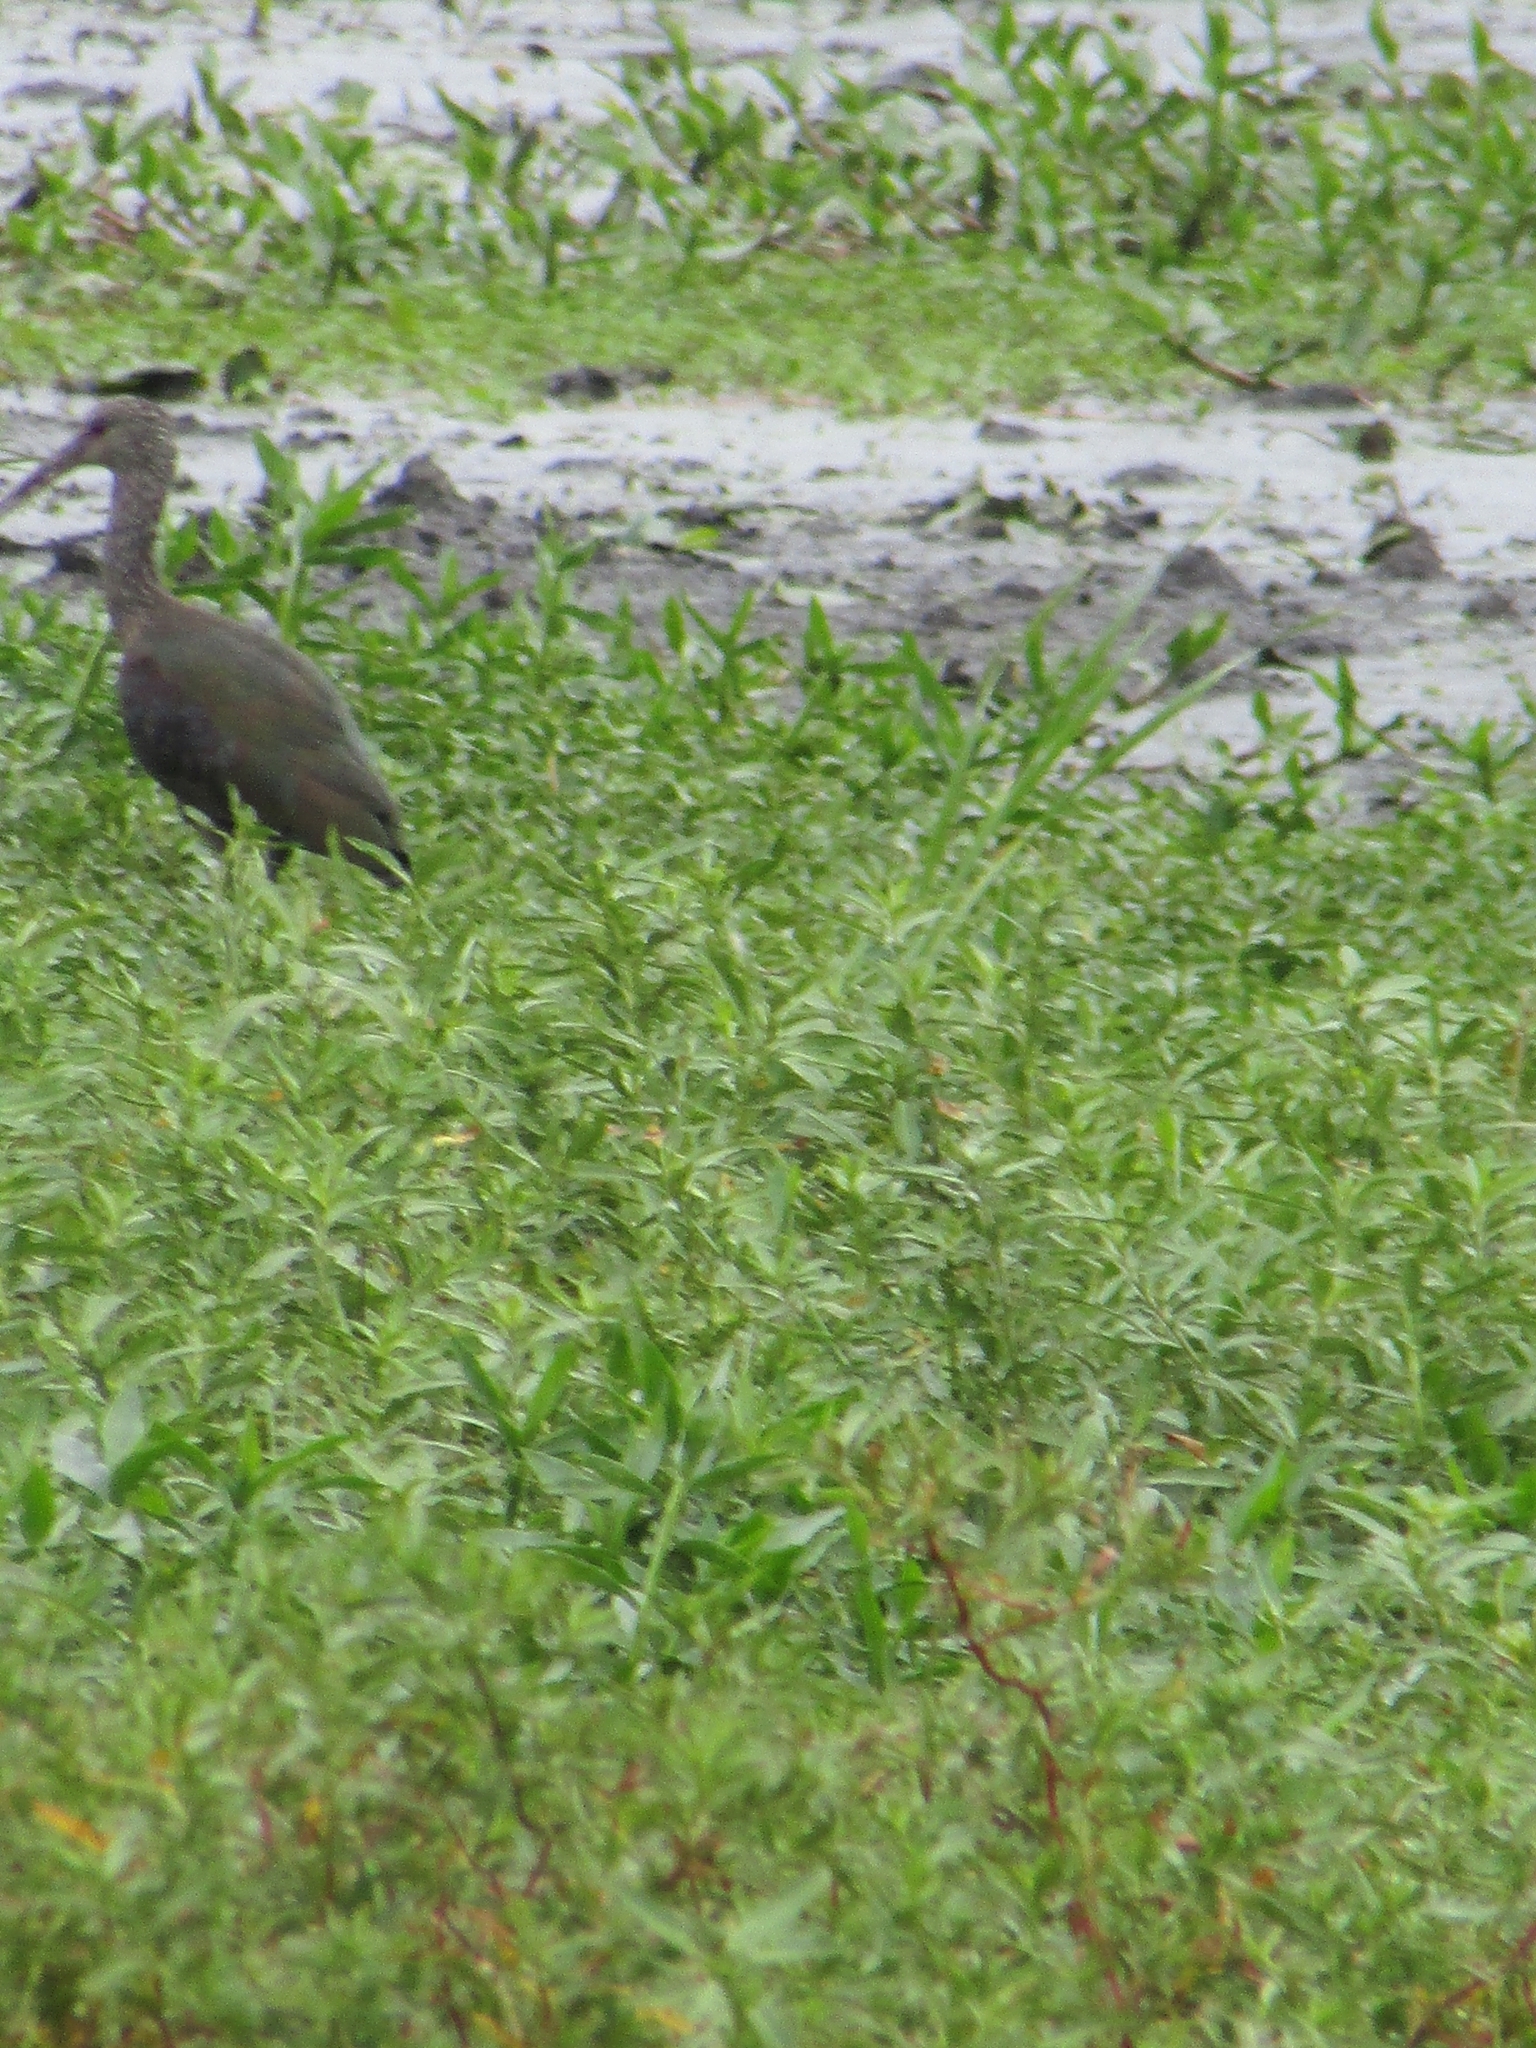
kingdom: Animalia
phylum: Chordata
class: Aves
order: Pelecaniformes
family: Threskiornithidae
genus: Theristicus
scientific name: Theristicus caerulescens
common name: Plumbeous ibis
